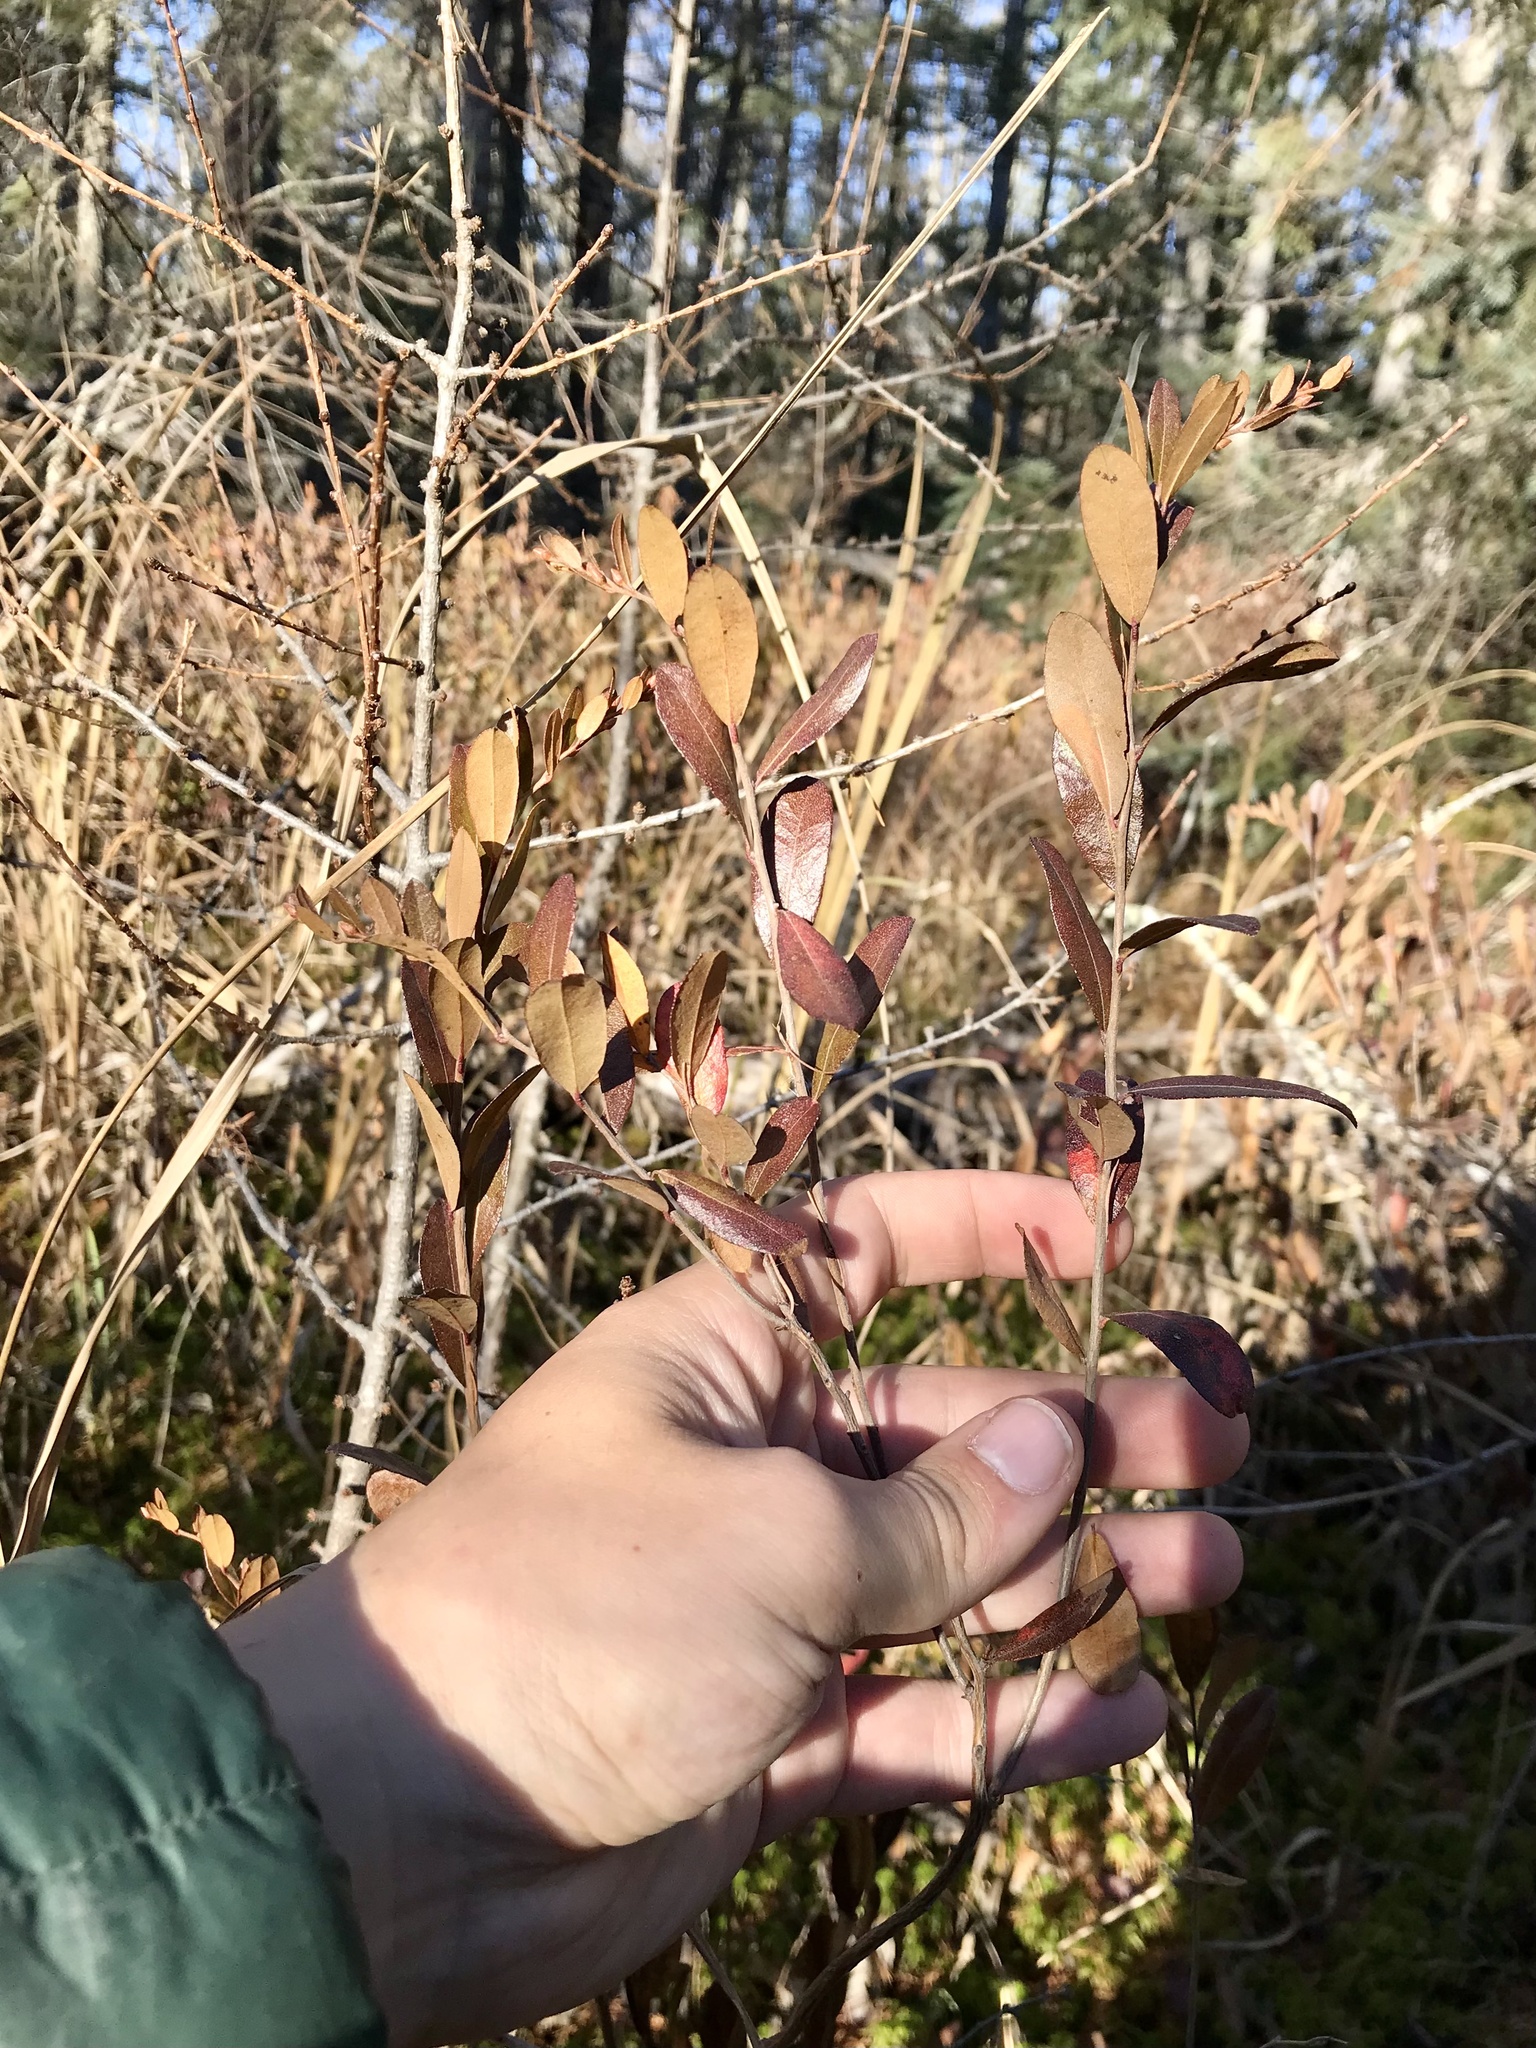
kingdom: Plantae
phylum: Tracheophyta
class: Magnoliopsida
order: Ericales
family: Ericaceae
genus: Chamaedaphne
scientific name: Chamaedaphne calyculata
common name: Leatherleaf
